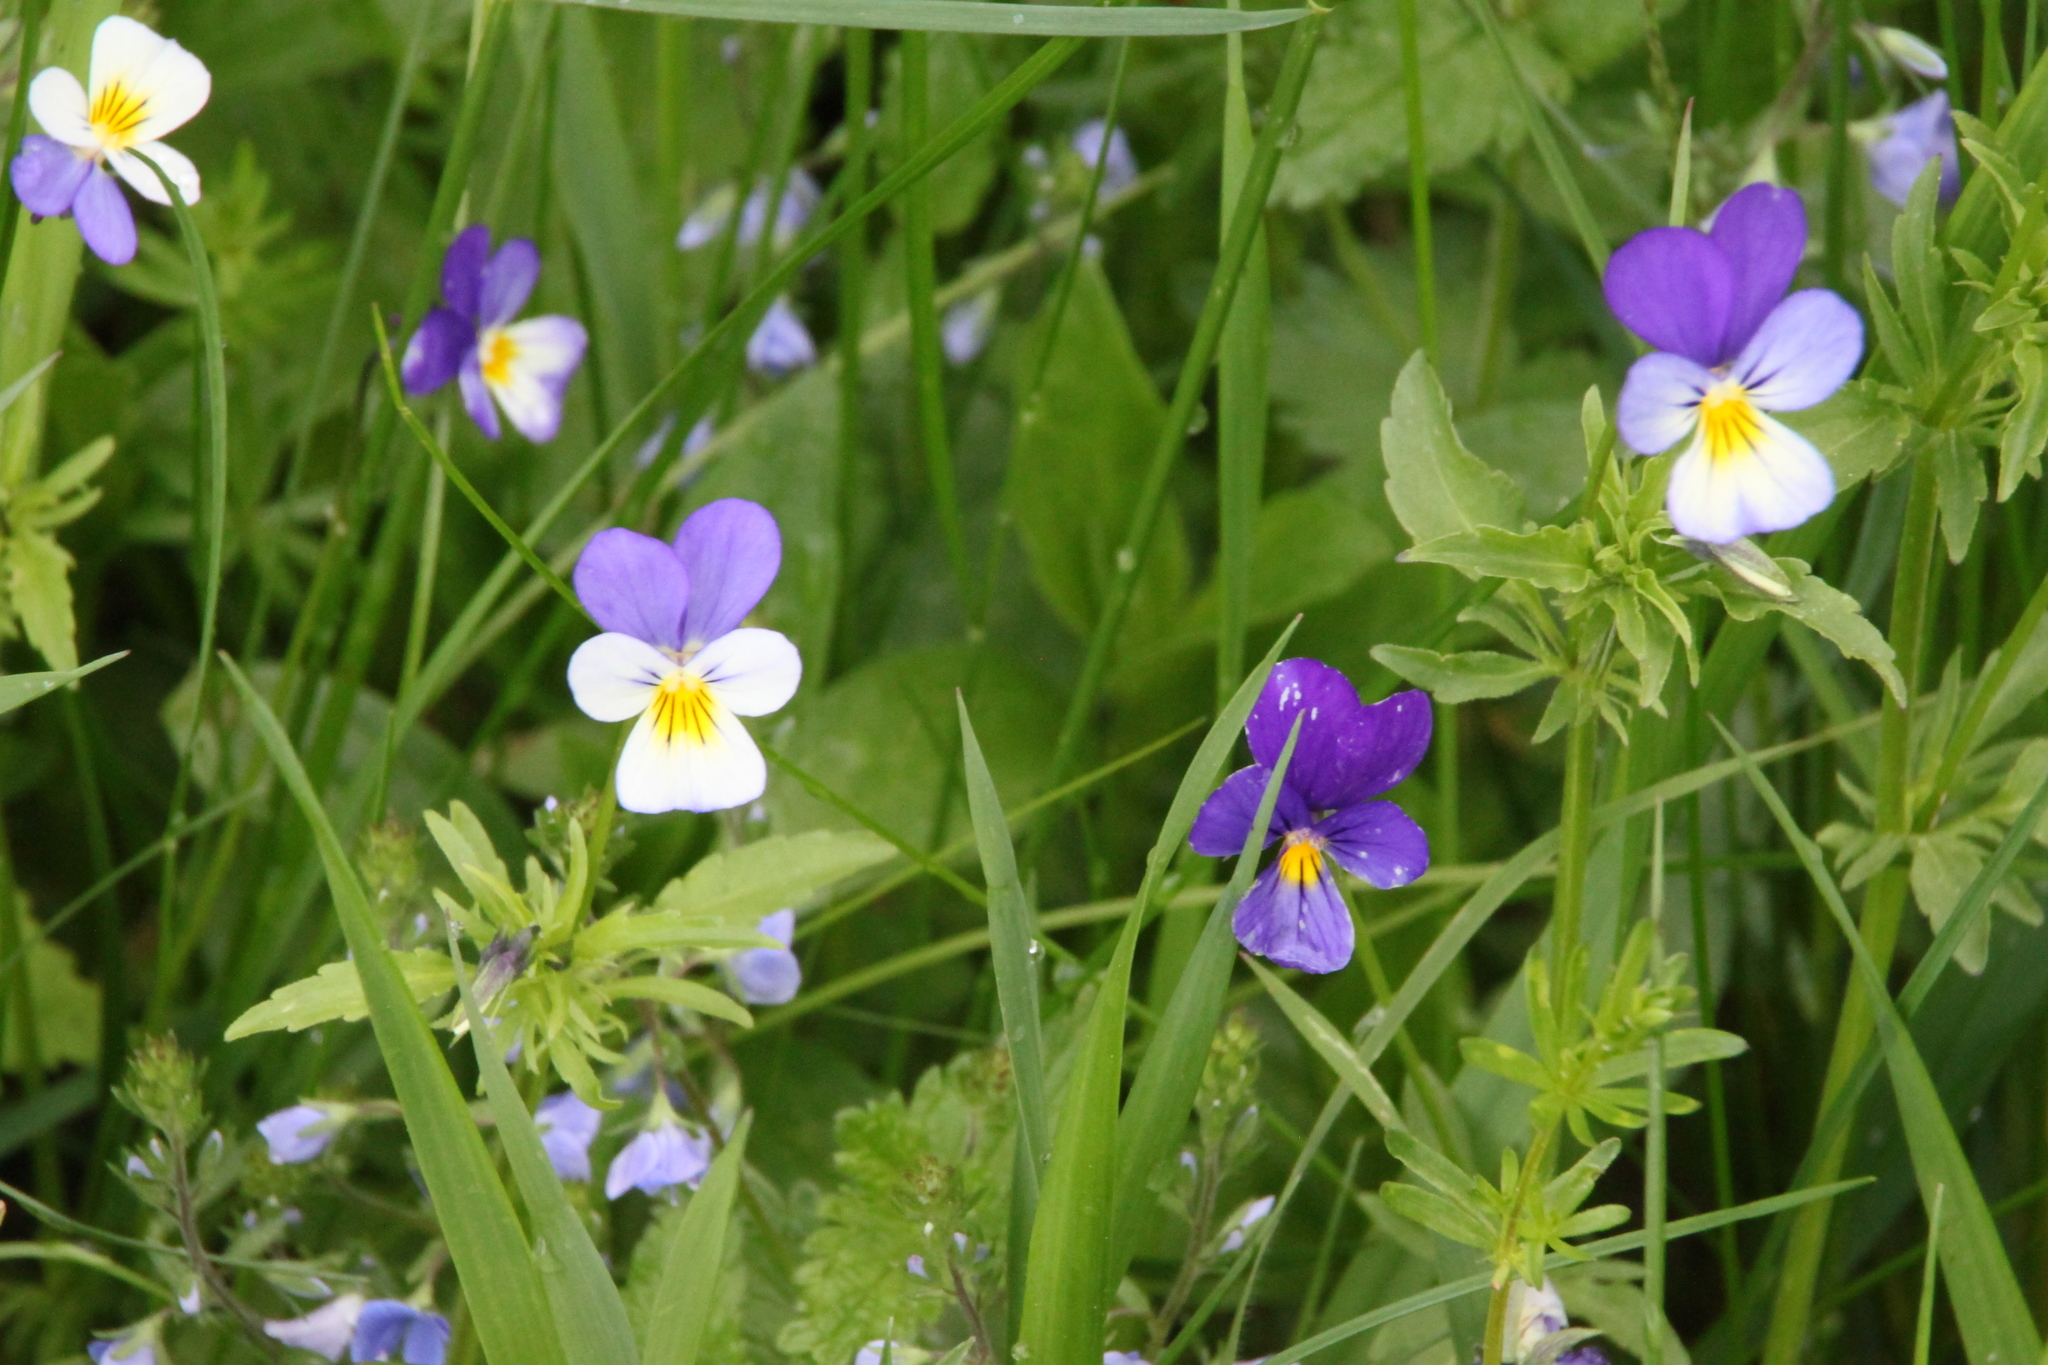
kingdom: Plantae
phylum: Tracheophyta
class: Magnoliopsida
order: Malpighiales
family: Violaceae
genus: Viola
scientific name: Viola tricolor
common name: Pansy
